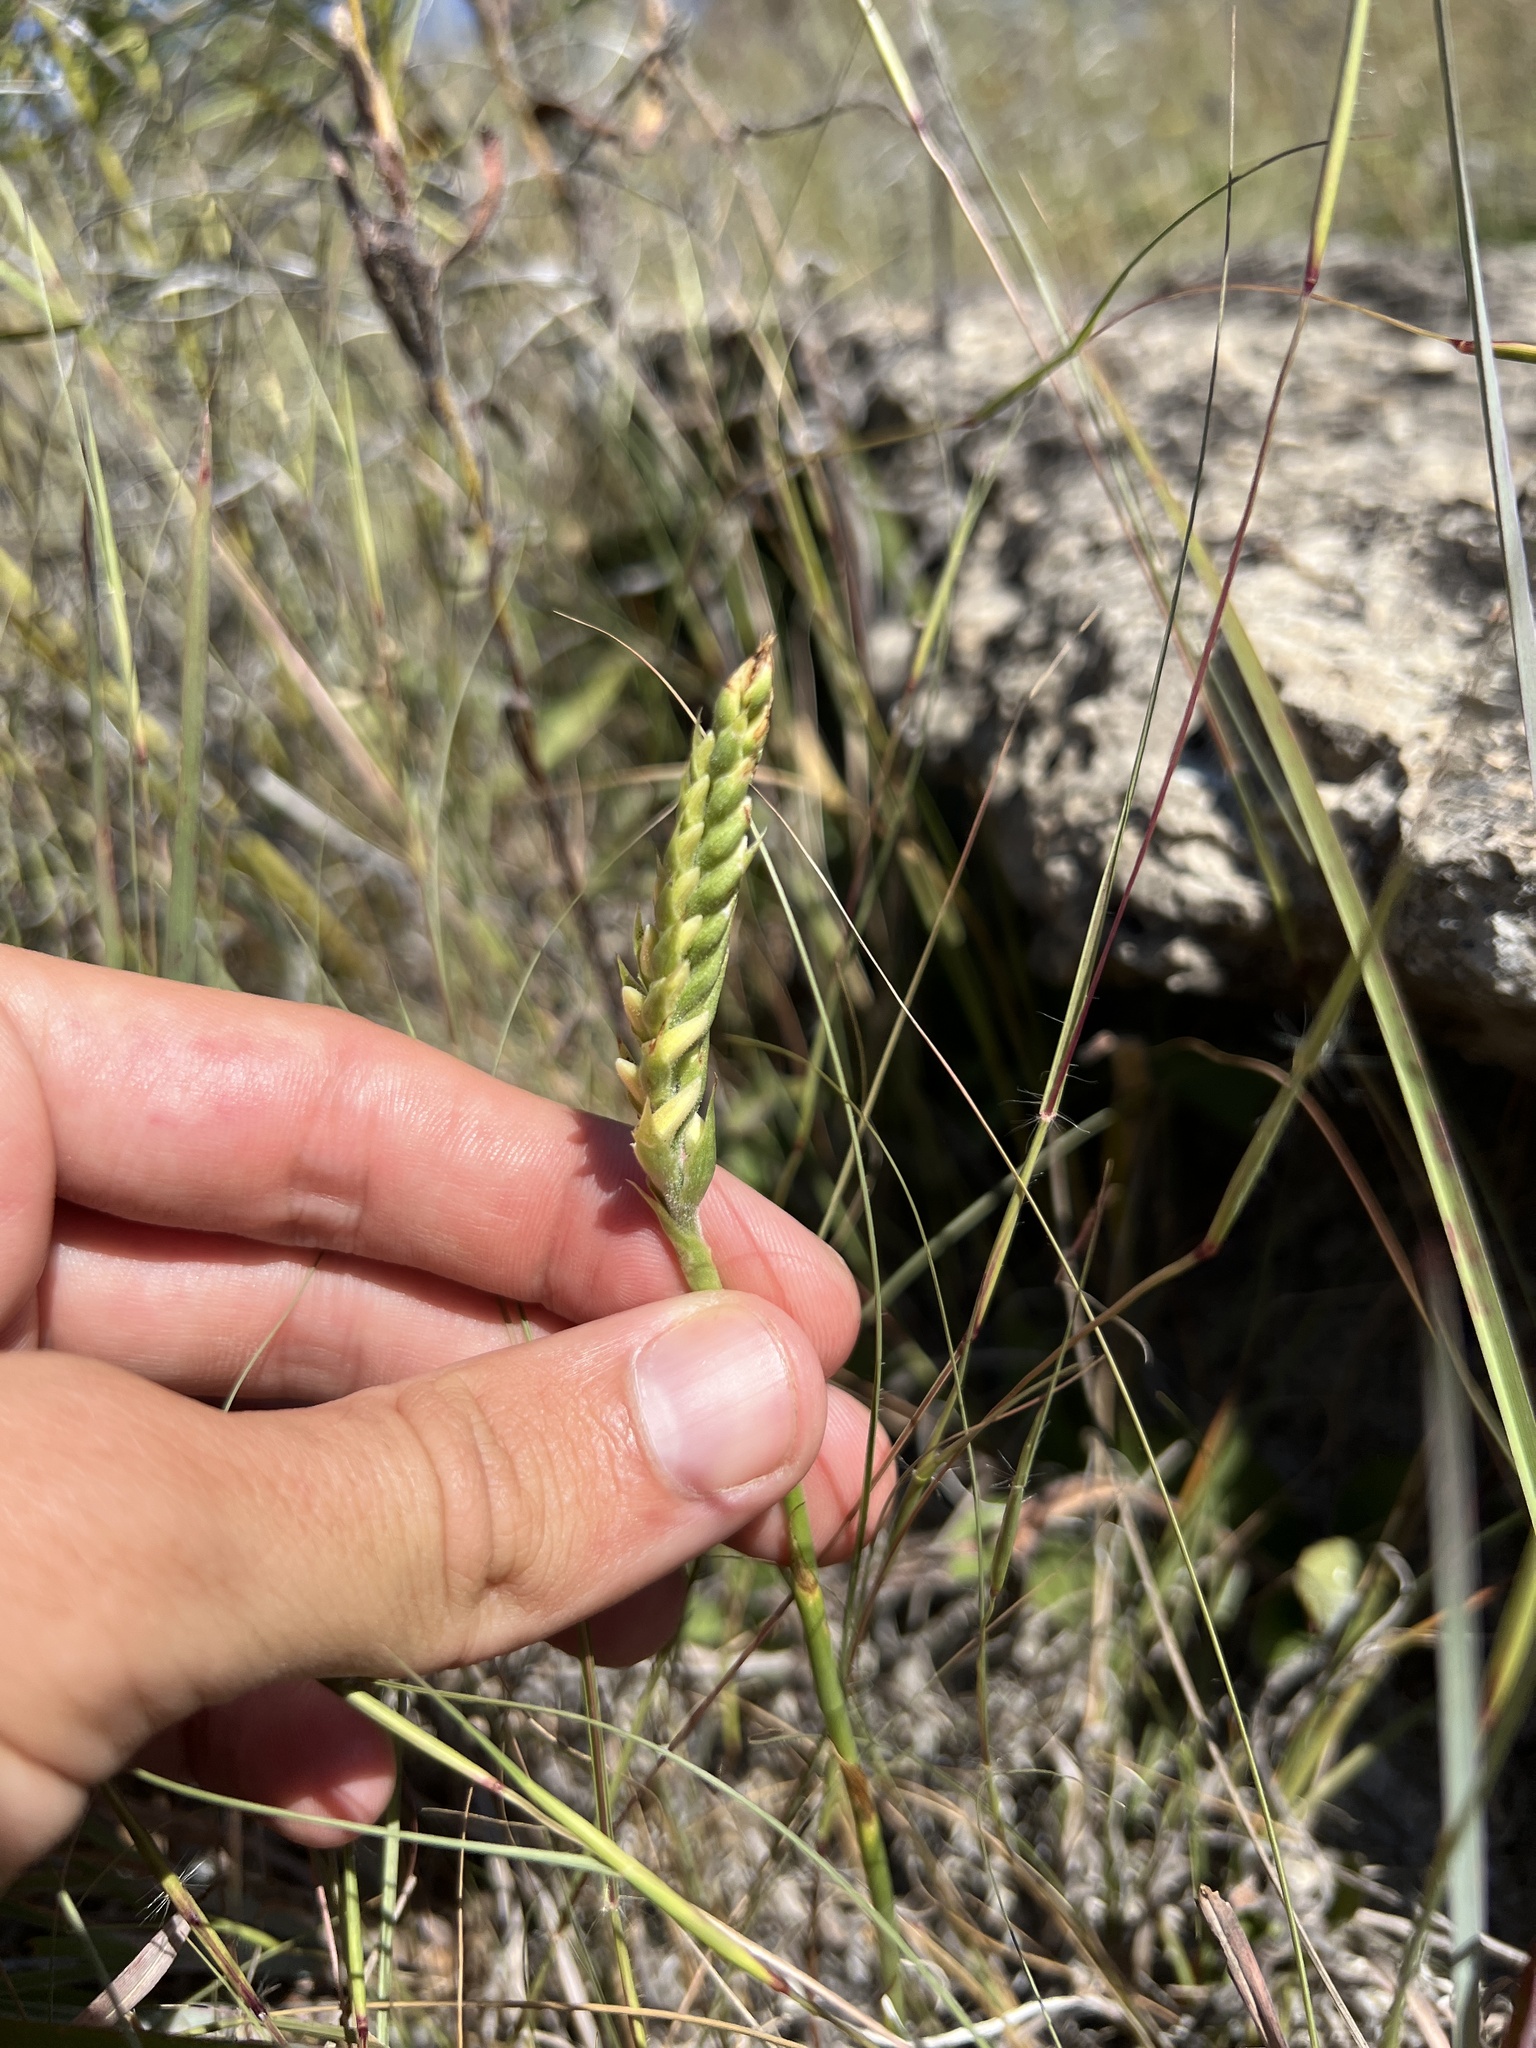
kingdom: Plantae
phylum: Tracheophyta
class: Liliopsida
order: Asparagales
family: Orchidaceae
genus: Spiranthes
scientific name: Spiranthes magnicamporum
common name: Great plains ladies'-tresses
